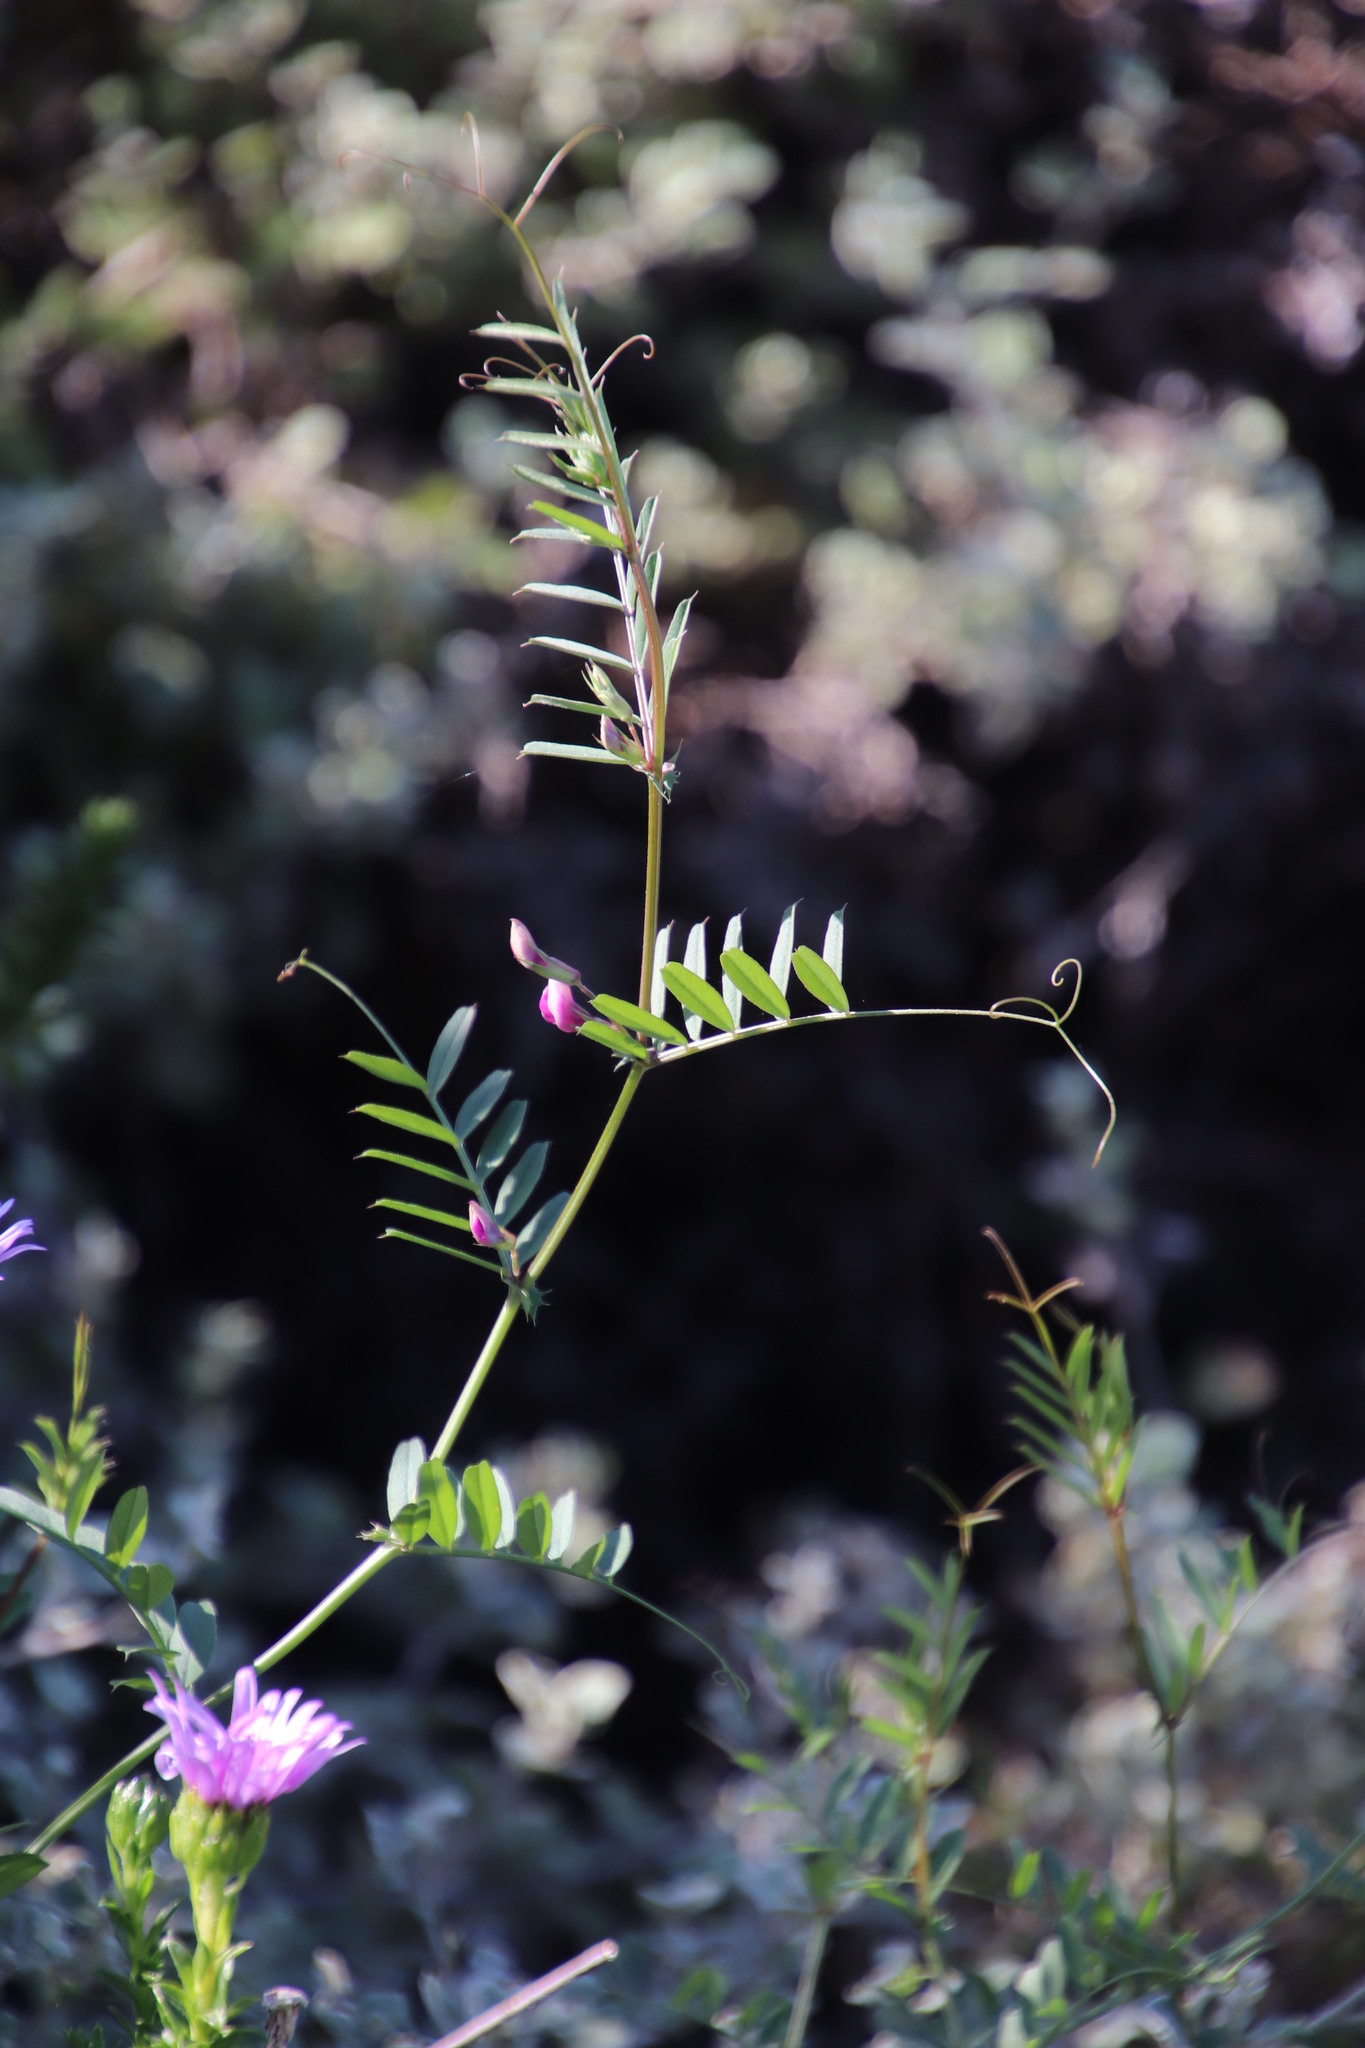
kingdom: Plantae
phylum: Tracheophyta
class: Magnoliopsida
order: Fabales
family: Fabaceae
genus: Vicia
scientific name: Vicia sativa
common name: Garden vetch
